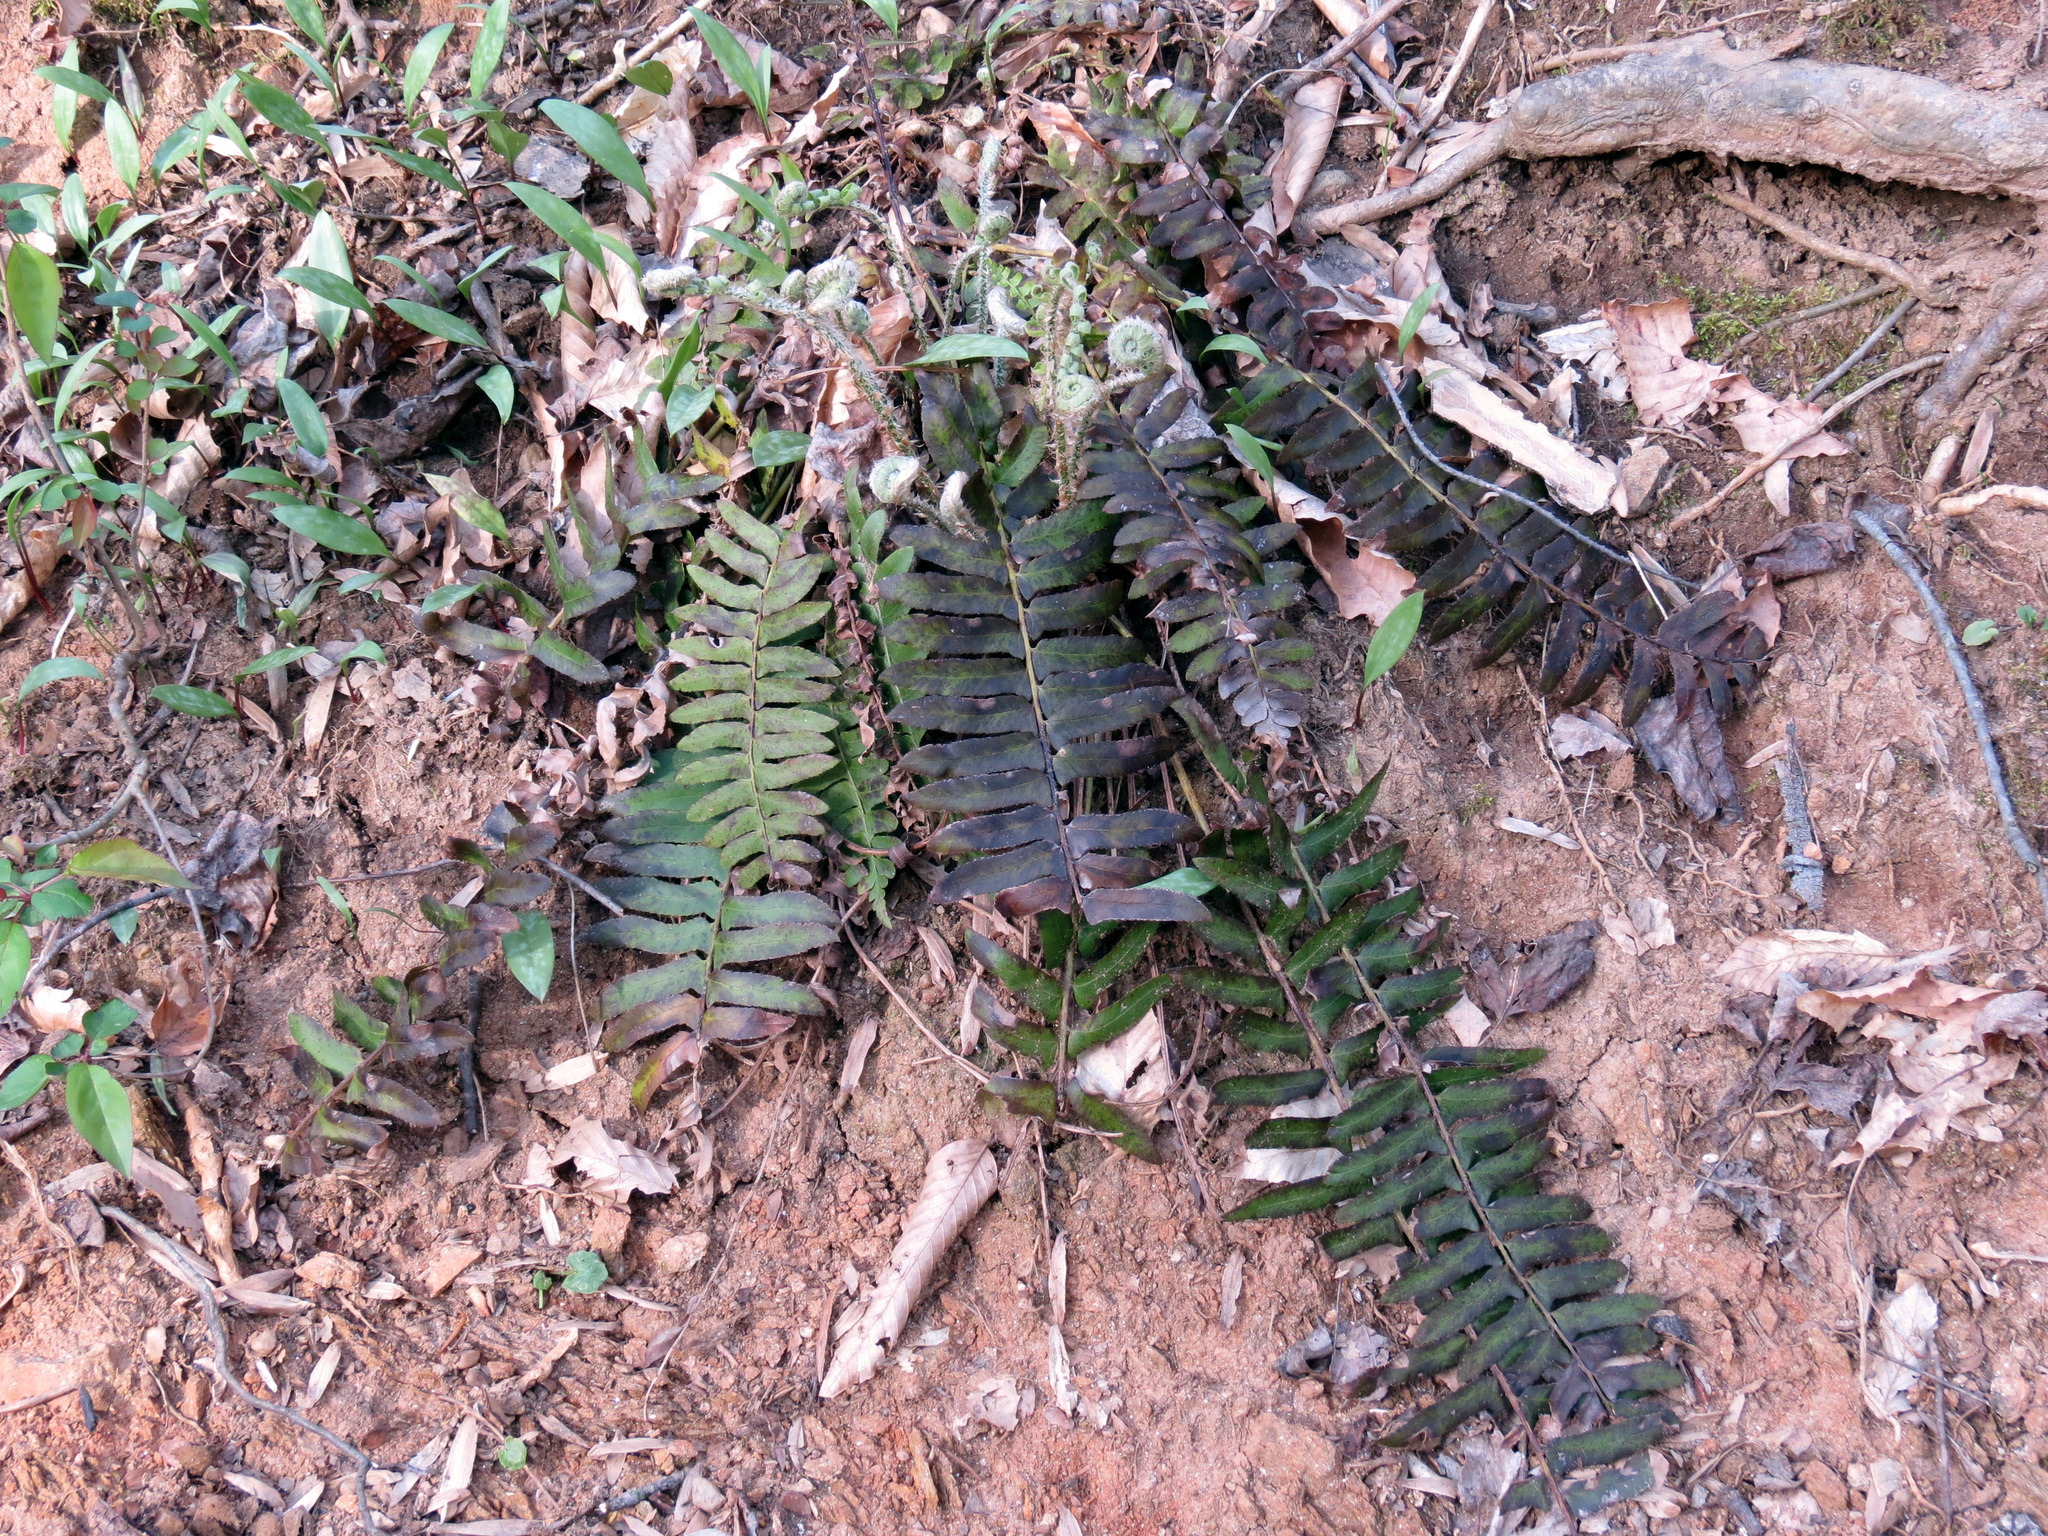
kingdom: Plantae
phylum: Tracheophyta
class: Polypodiopsida
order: Polypodiales
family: Dryopteridaceae
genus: Polystichum
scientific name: Polystichum acrostichoides
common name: Christmas fern
